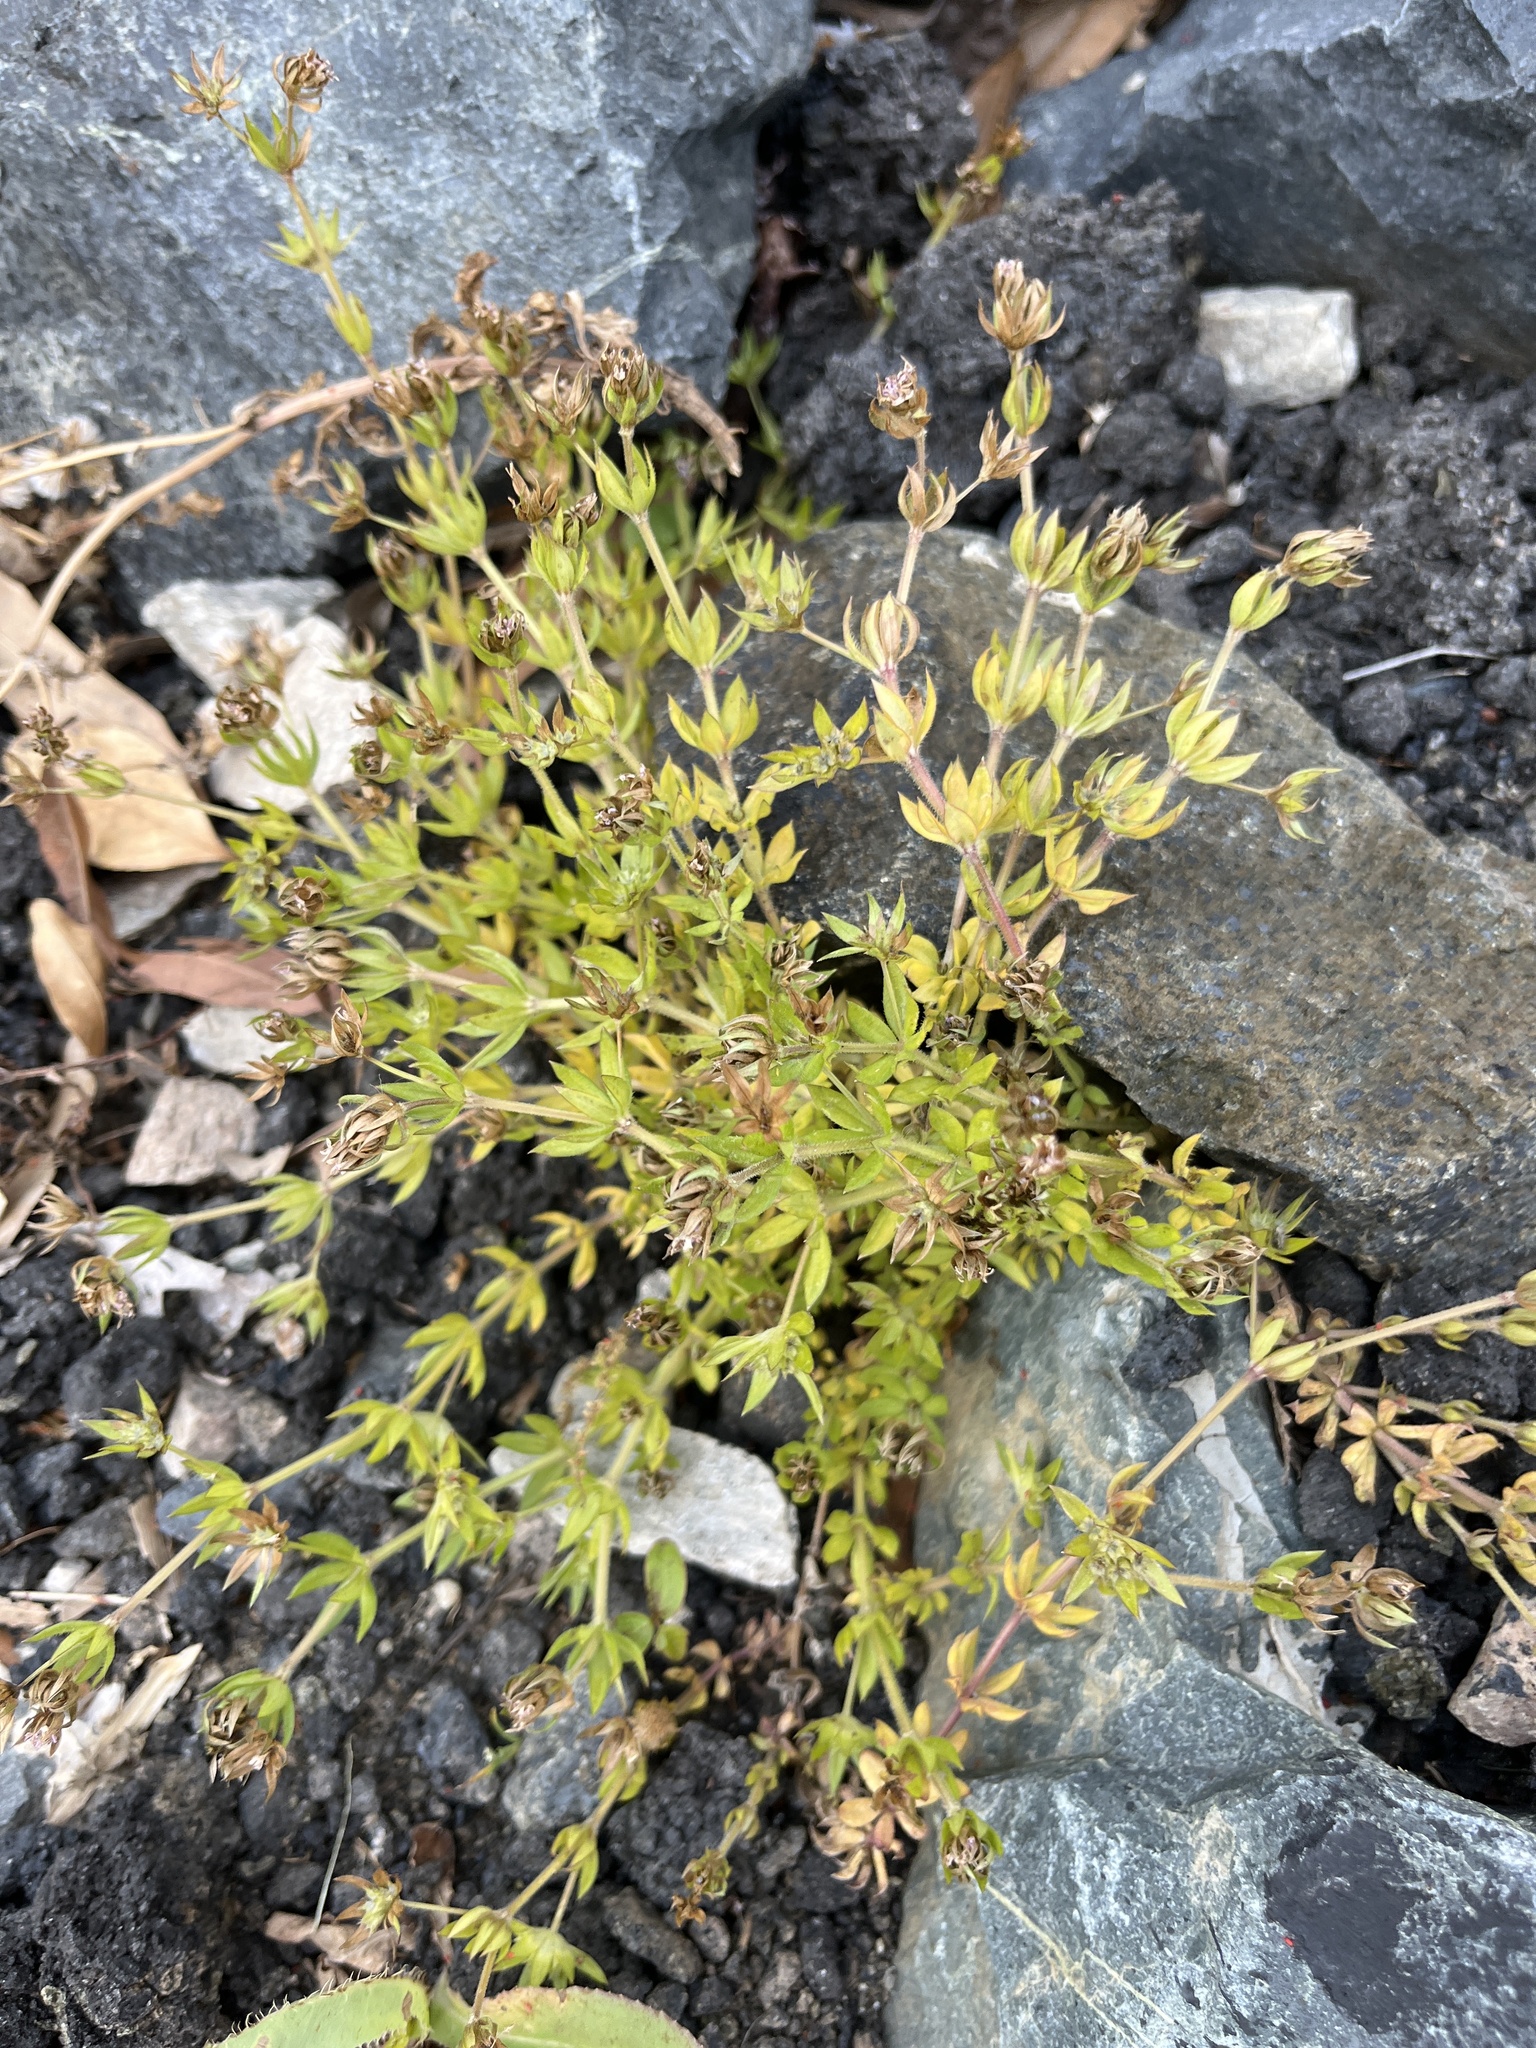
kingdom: Plantae
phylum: Tracheophyta
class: Magnoliopsida
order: Gentianales
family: Rubiaceae
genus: Sherardia
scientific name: Sherardia arvensis
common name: Field madder
